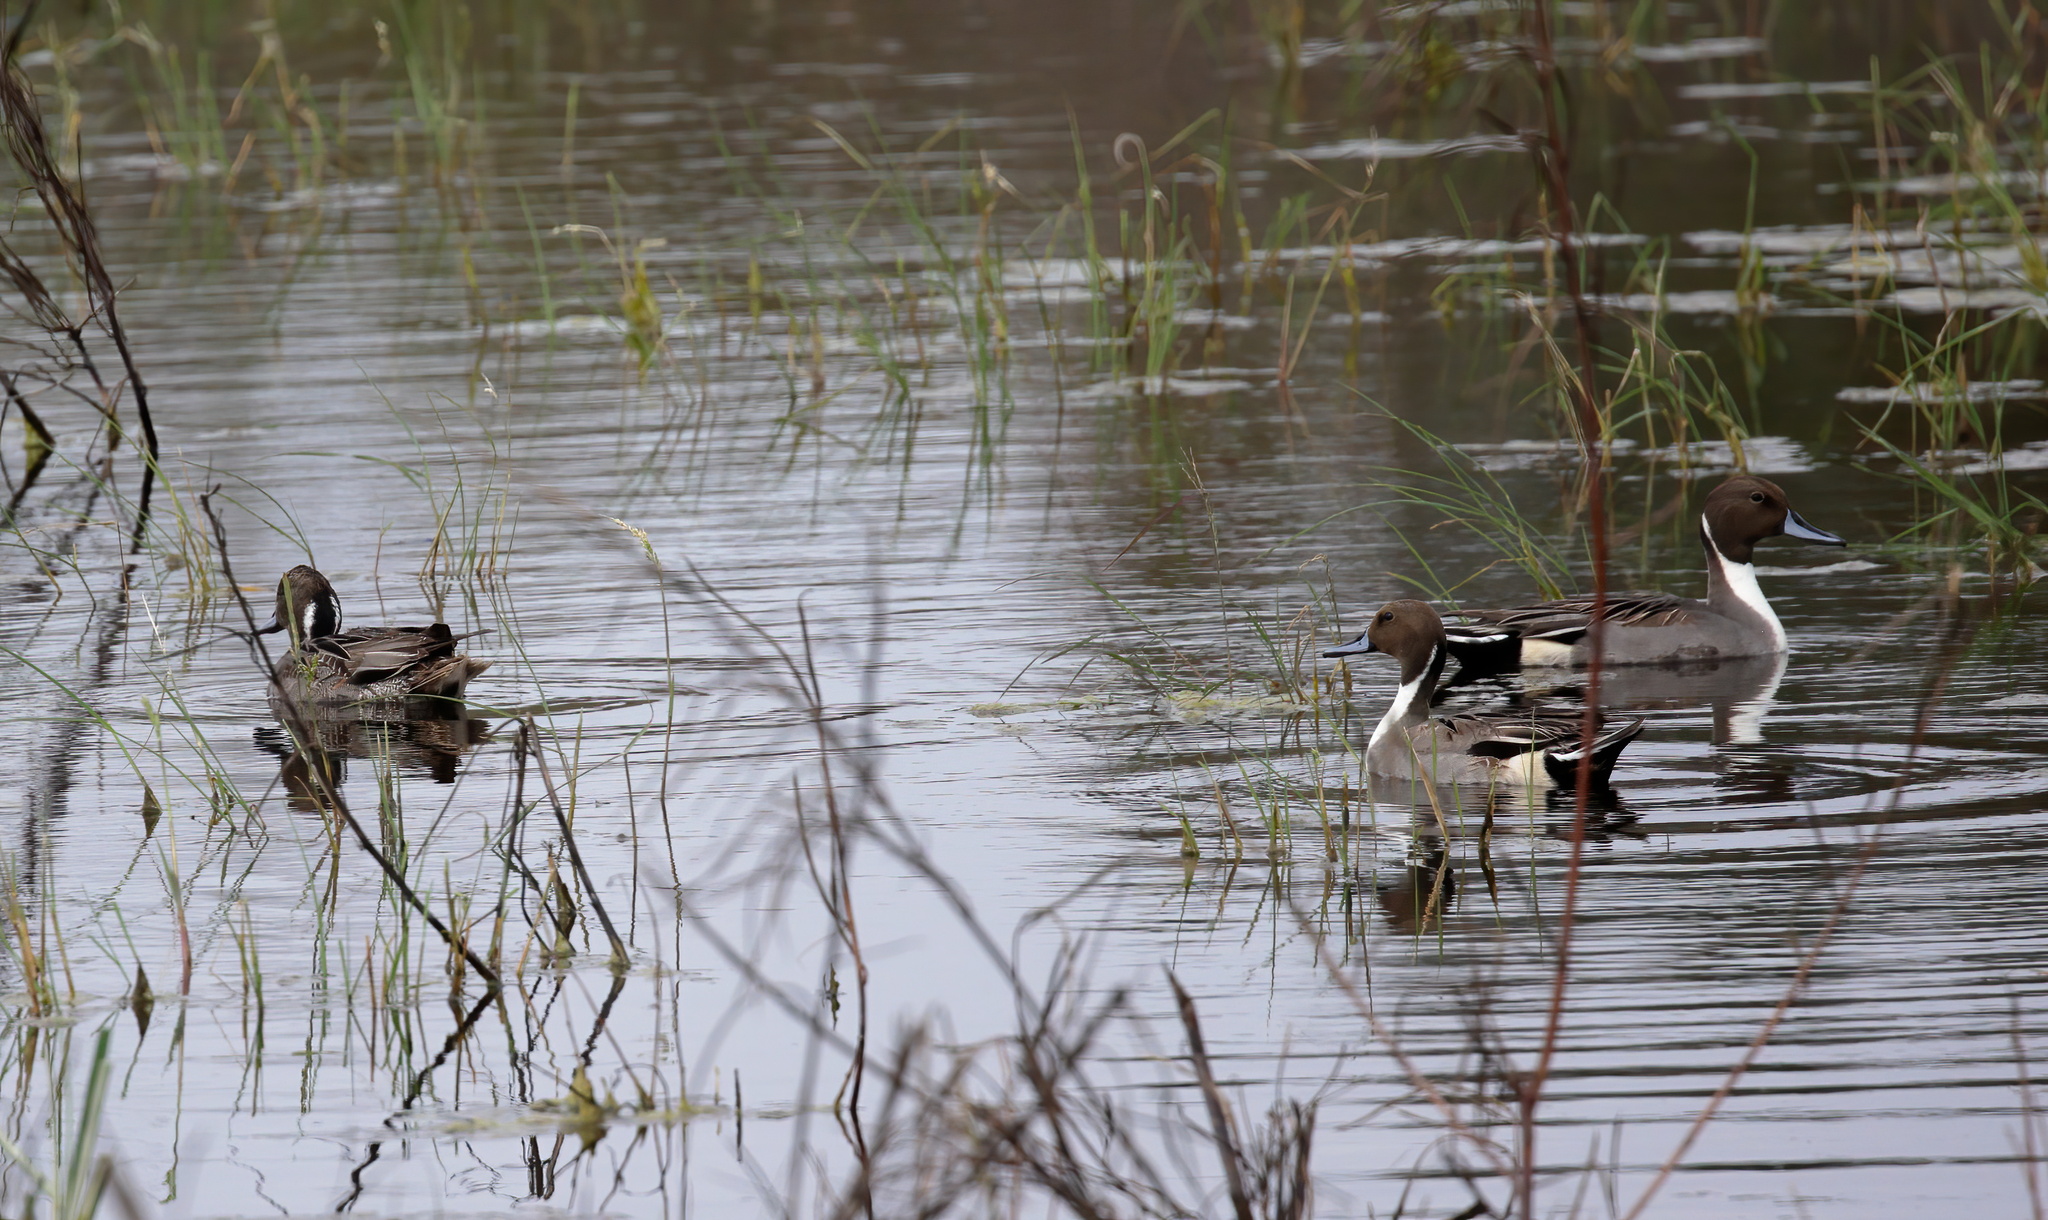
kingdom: Animalia
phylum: Chordata
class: Aves
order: Anseriformes
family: Anatidae
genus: Anas
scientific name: Anas acuta
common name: Northern pintail
